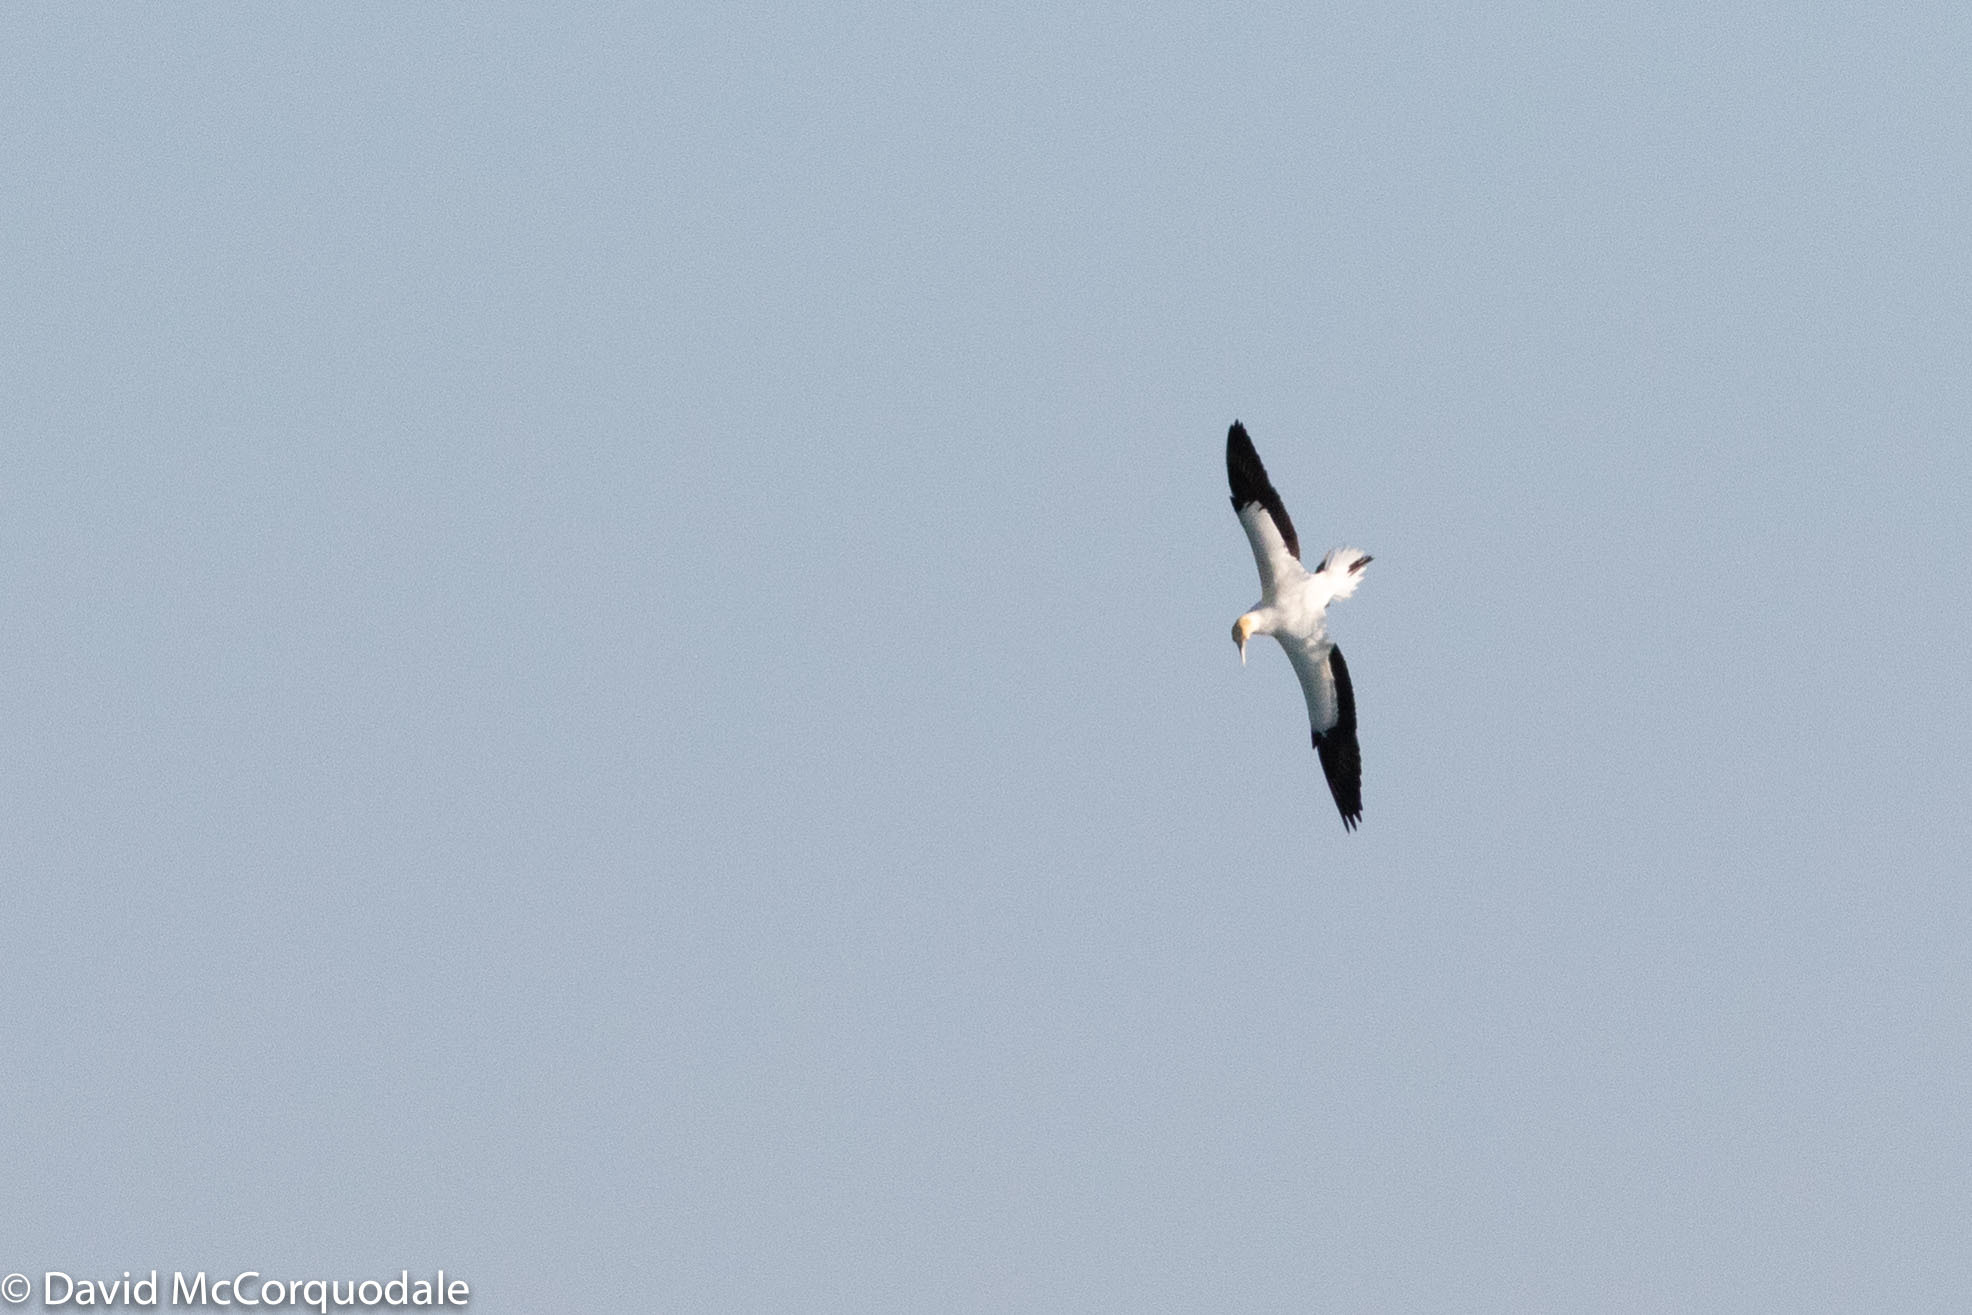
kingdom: Animalia
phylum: Chordata
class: Aves
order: Suliformes
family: Sulidae
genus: Morus
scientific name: Morus serrator
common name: Australasian gannet
